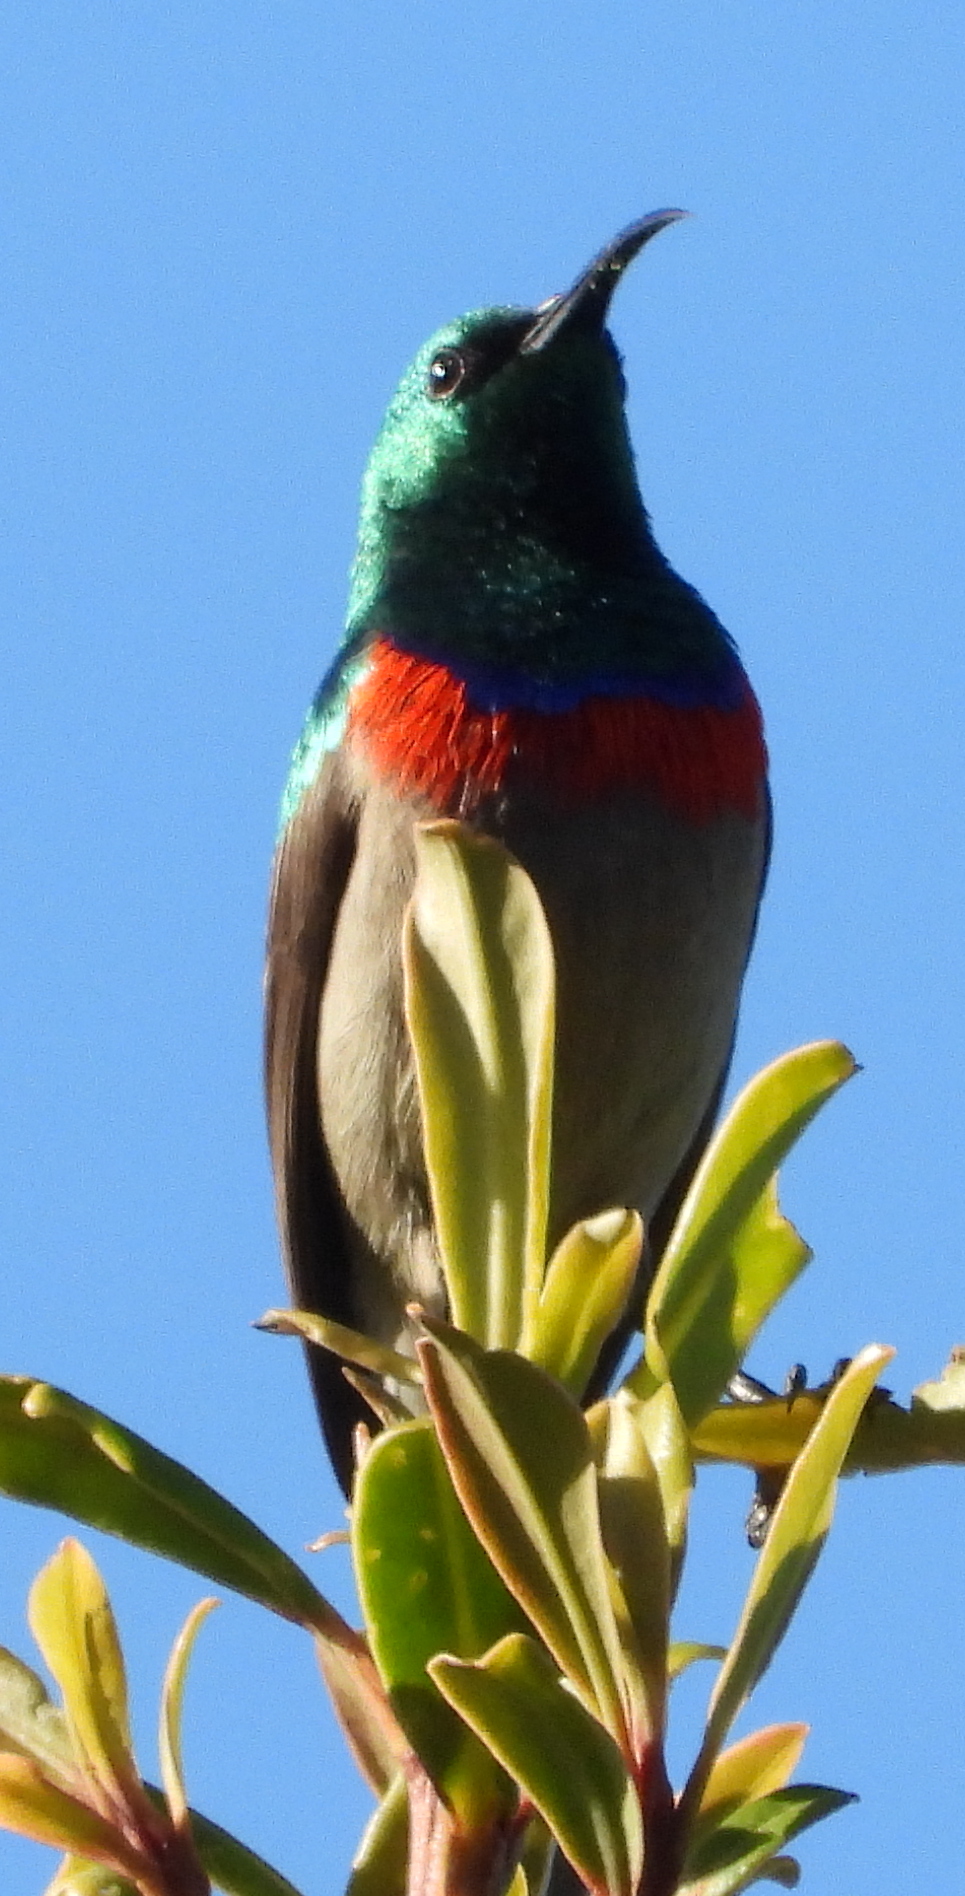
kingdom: Animalia
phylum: Chordata
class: Aves
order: Passeriformes
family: Nectariniidae
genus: Cinnyris
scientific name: Cinnyris chalybeus
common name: Southern double-collared sunbird
